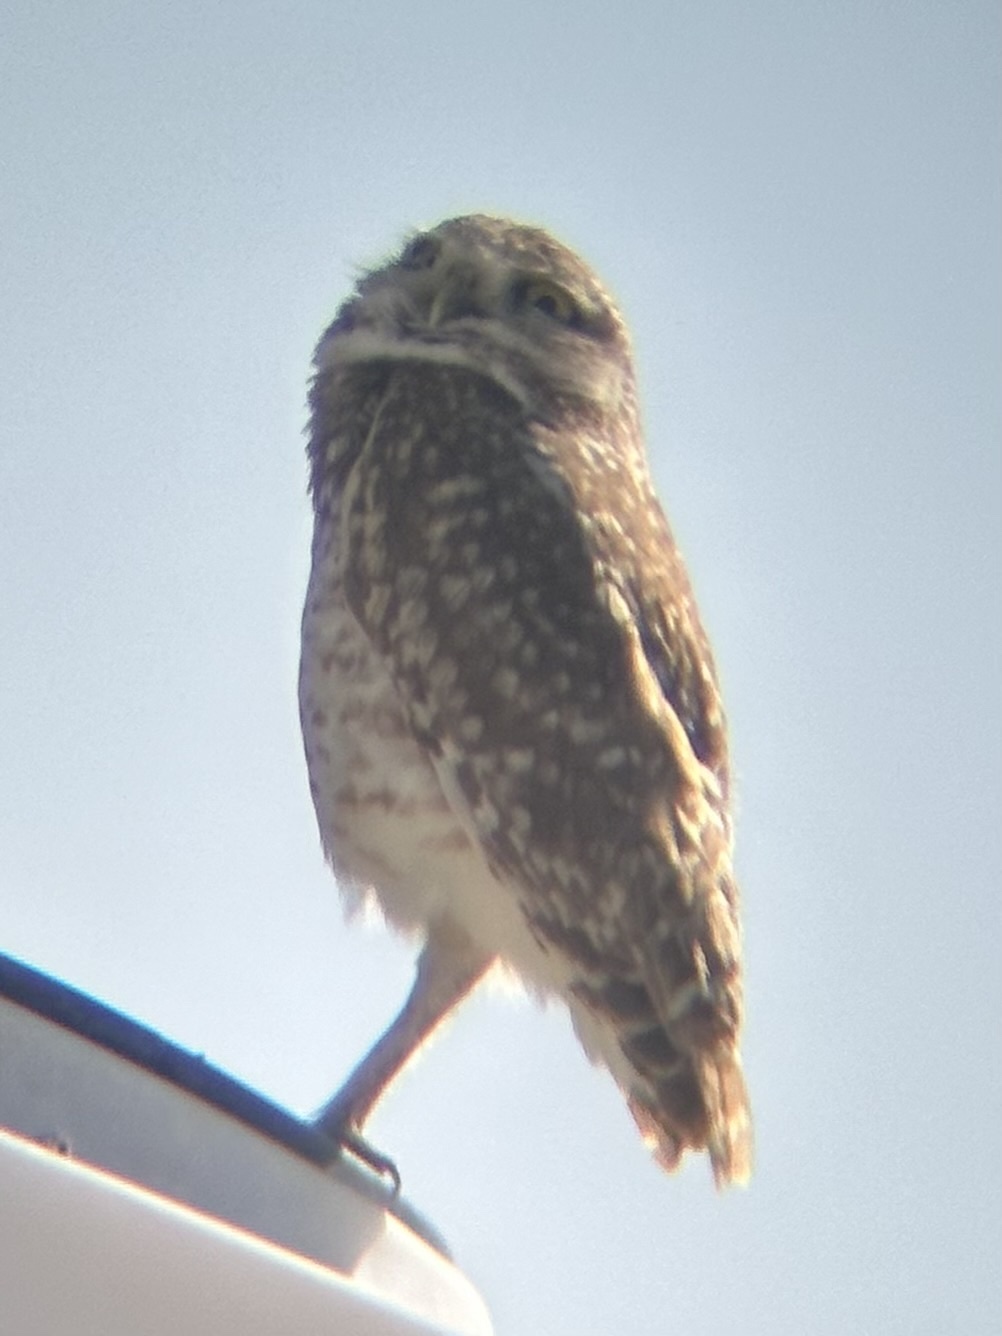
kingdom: Animalia
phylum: Chordata
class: Aves
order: Strigiformes
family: Strigidae
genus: Athene
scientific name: Athene cunicularia
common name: Burrowing owl
